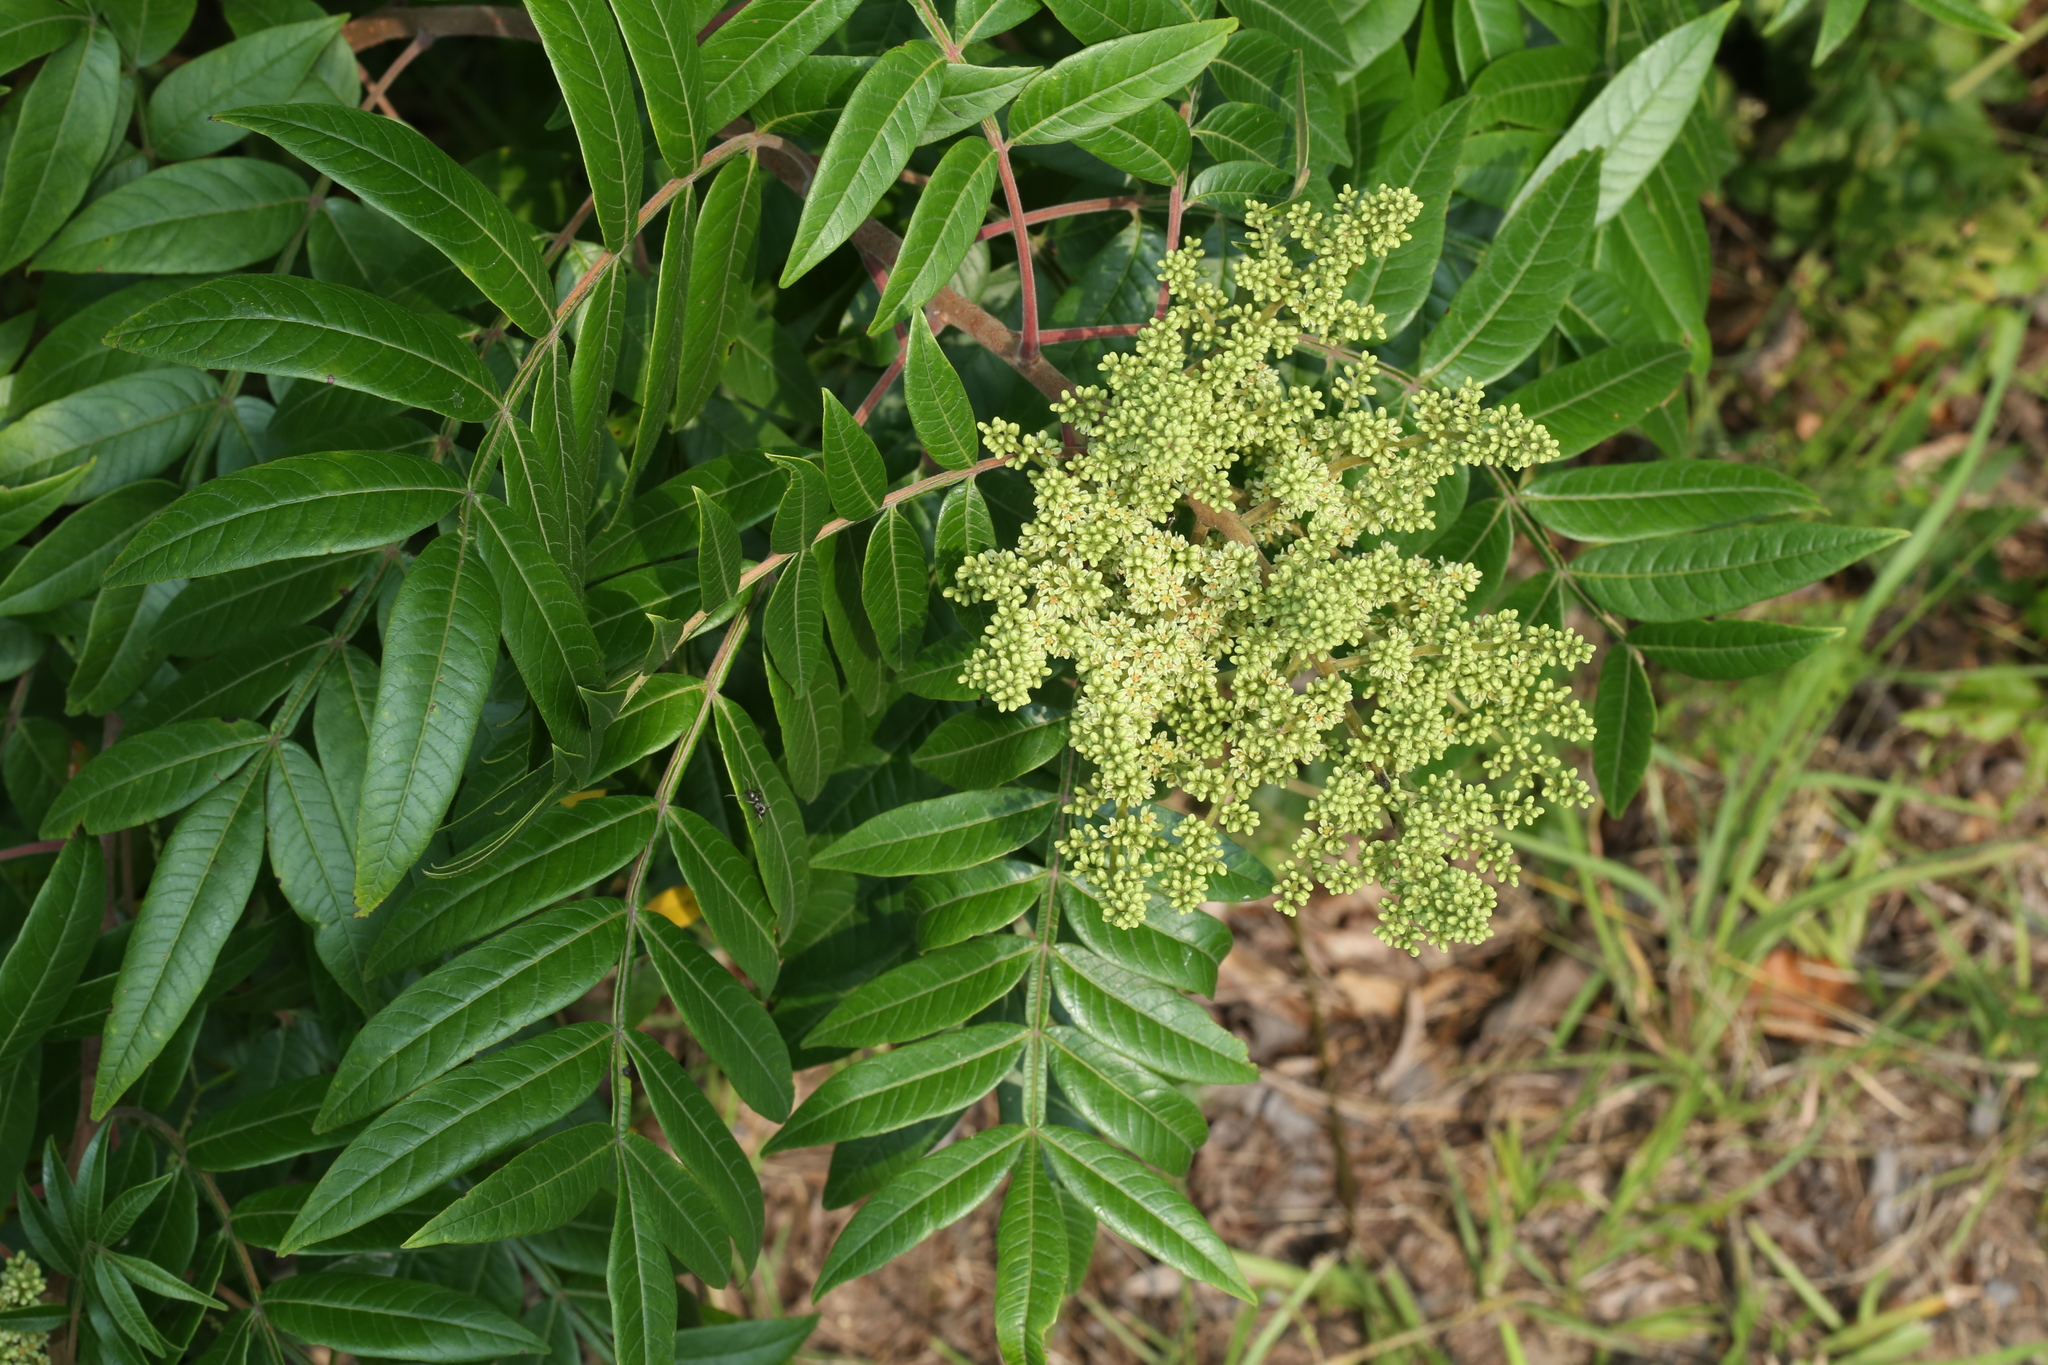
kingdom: Plantae
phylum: Tracheophyta
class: Magnoliopsida
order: Sapindales
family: Anacardiaceae
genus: Rhus
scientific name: Rhus copallina
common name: Shining sumac
